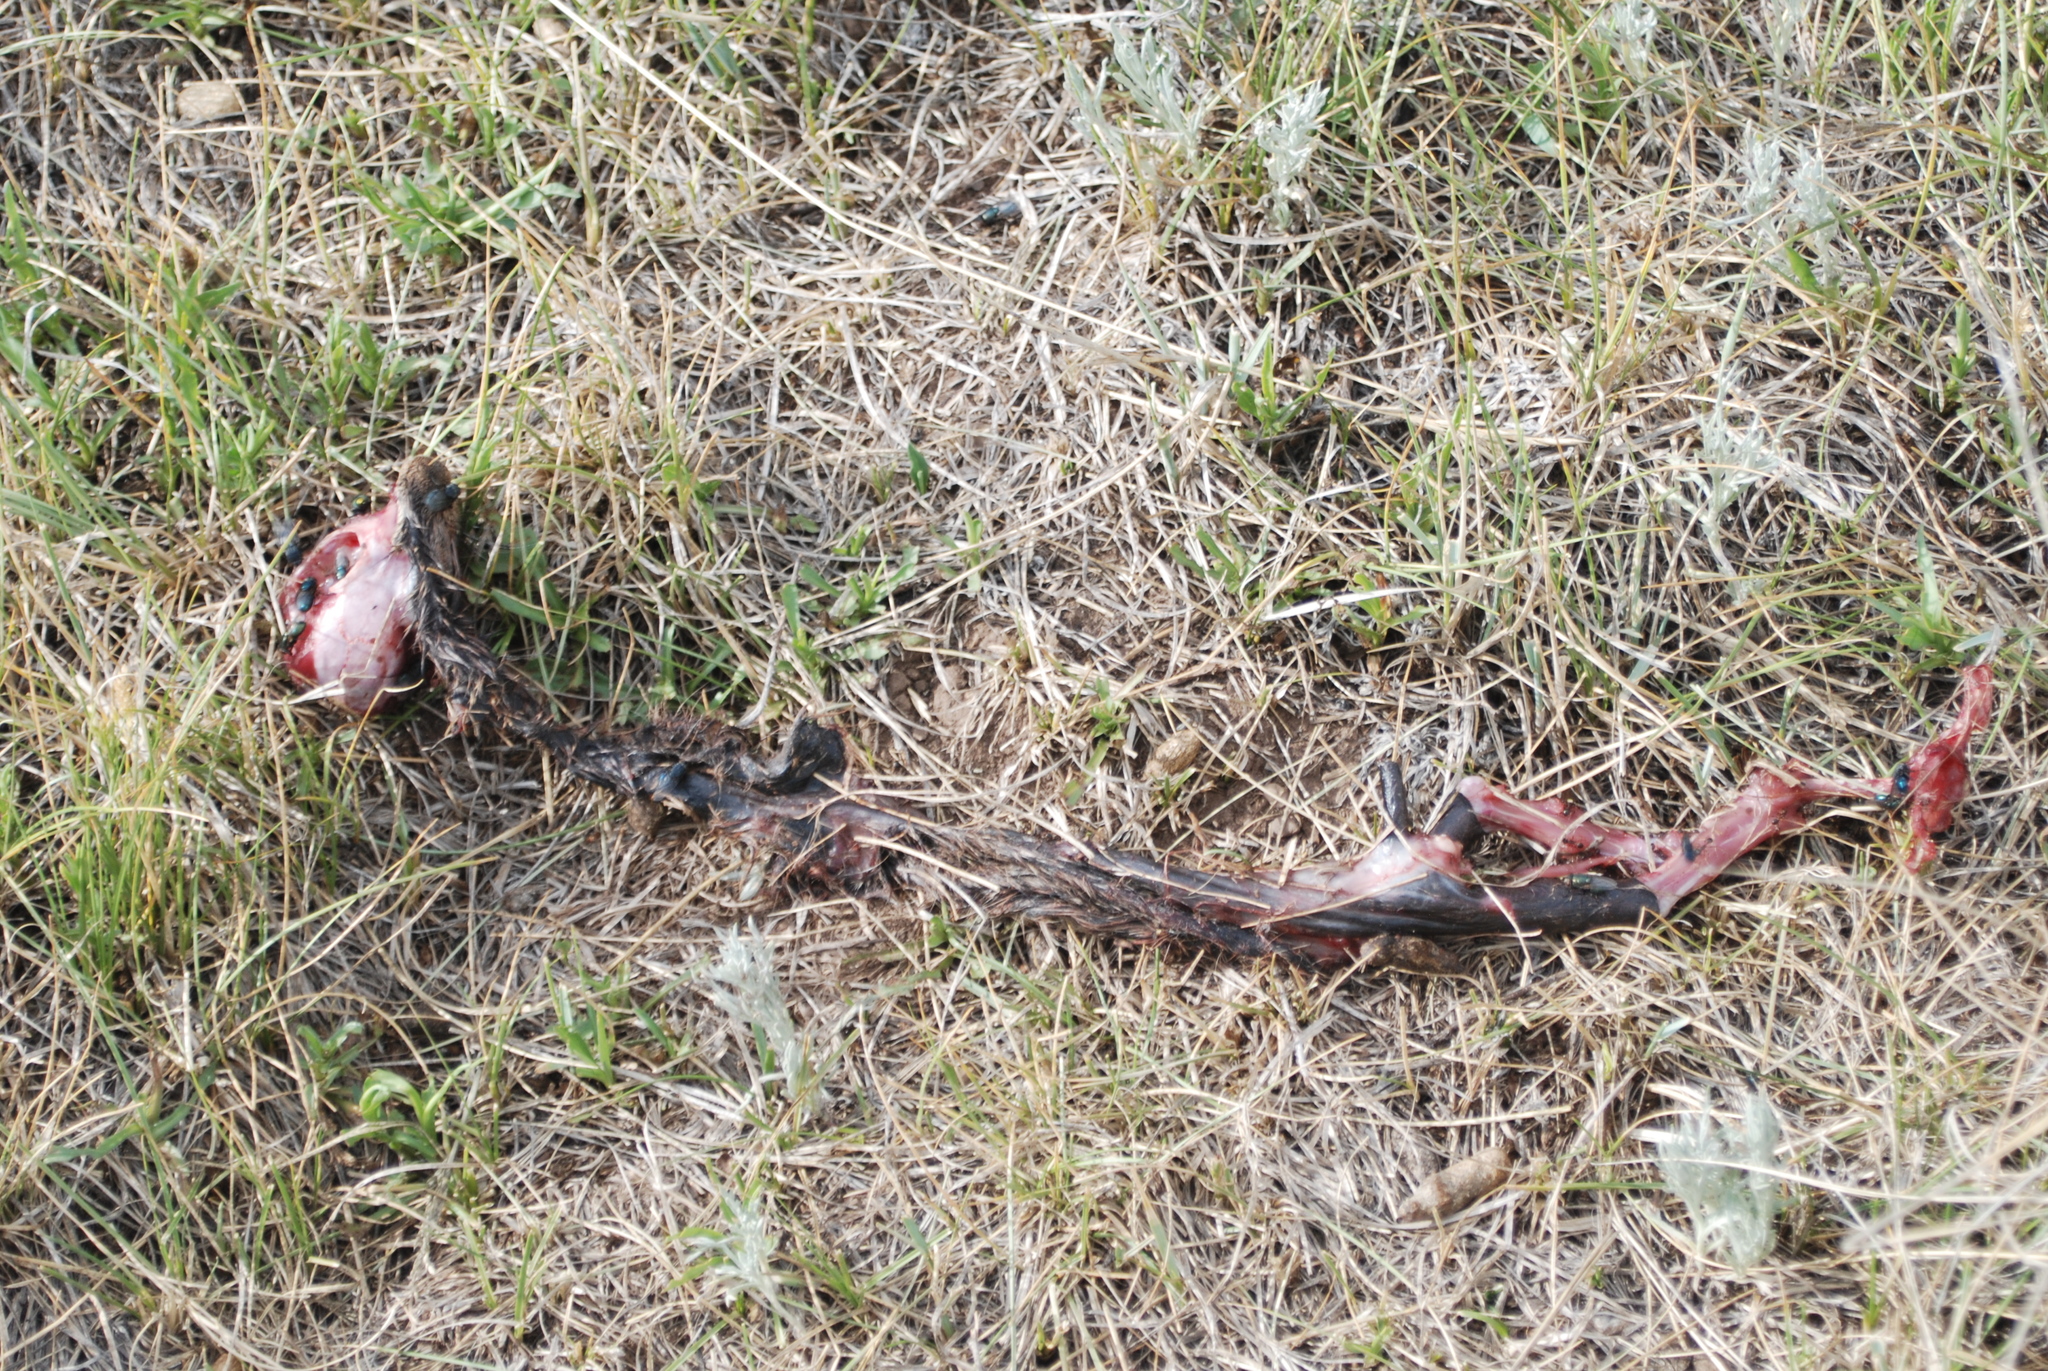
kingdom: Animalia
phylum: Chordata
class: Mammalia
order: Rodentia
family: Sciuridae
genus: Cynomys
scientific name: Cynomys gunnisoni
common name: Gunnison's prairie dog
